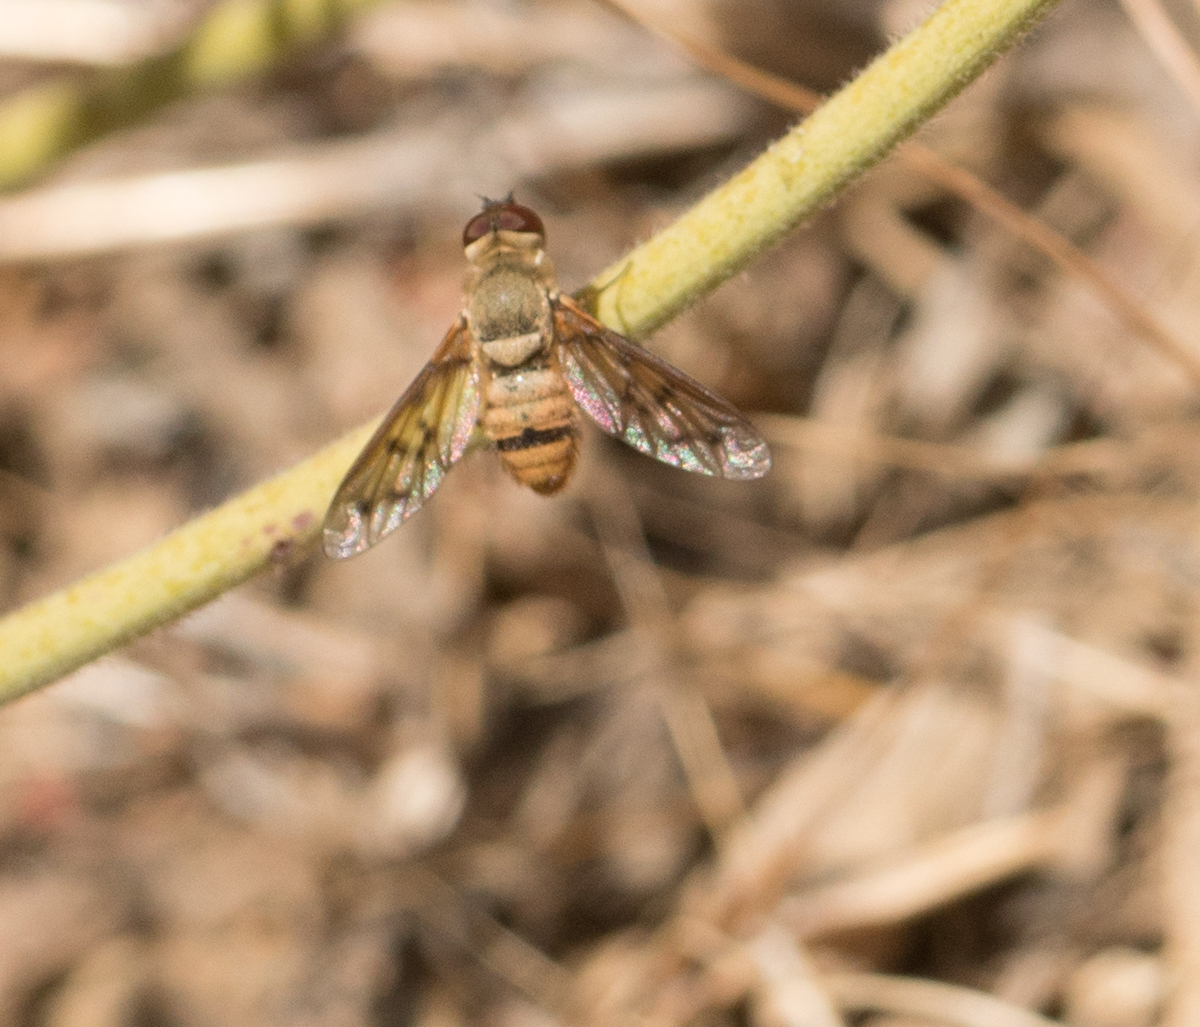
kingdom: Animalia
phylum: Arthropoda
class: Insecta
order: Diptera
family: Bombyliidae
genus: Neodiplocampta
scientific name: Neodiplocampta mirus
